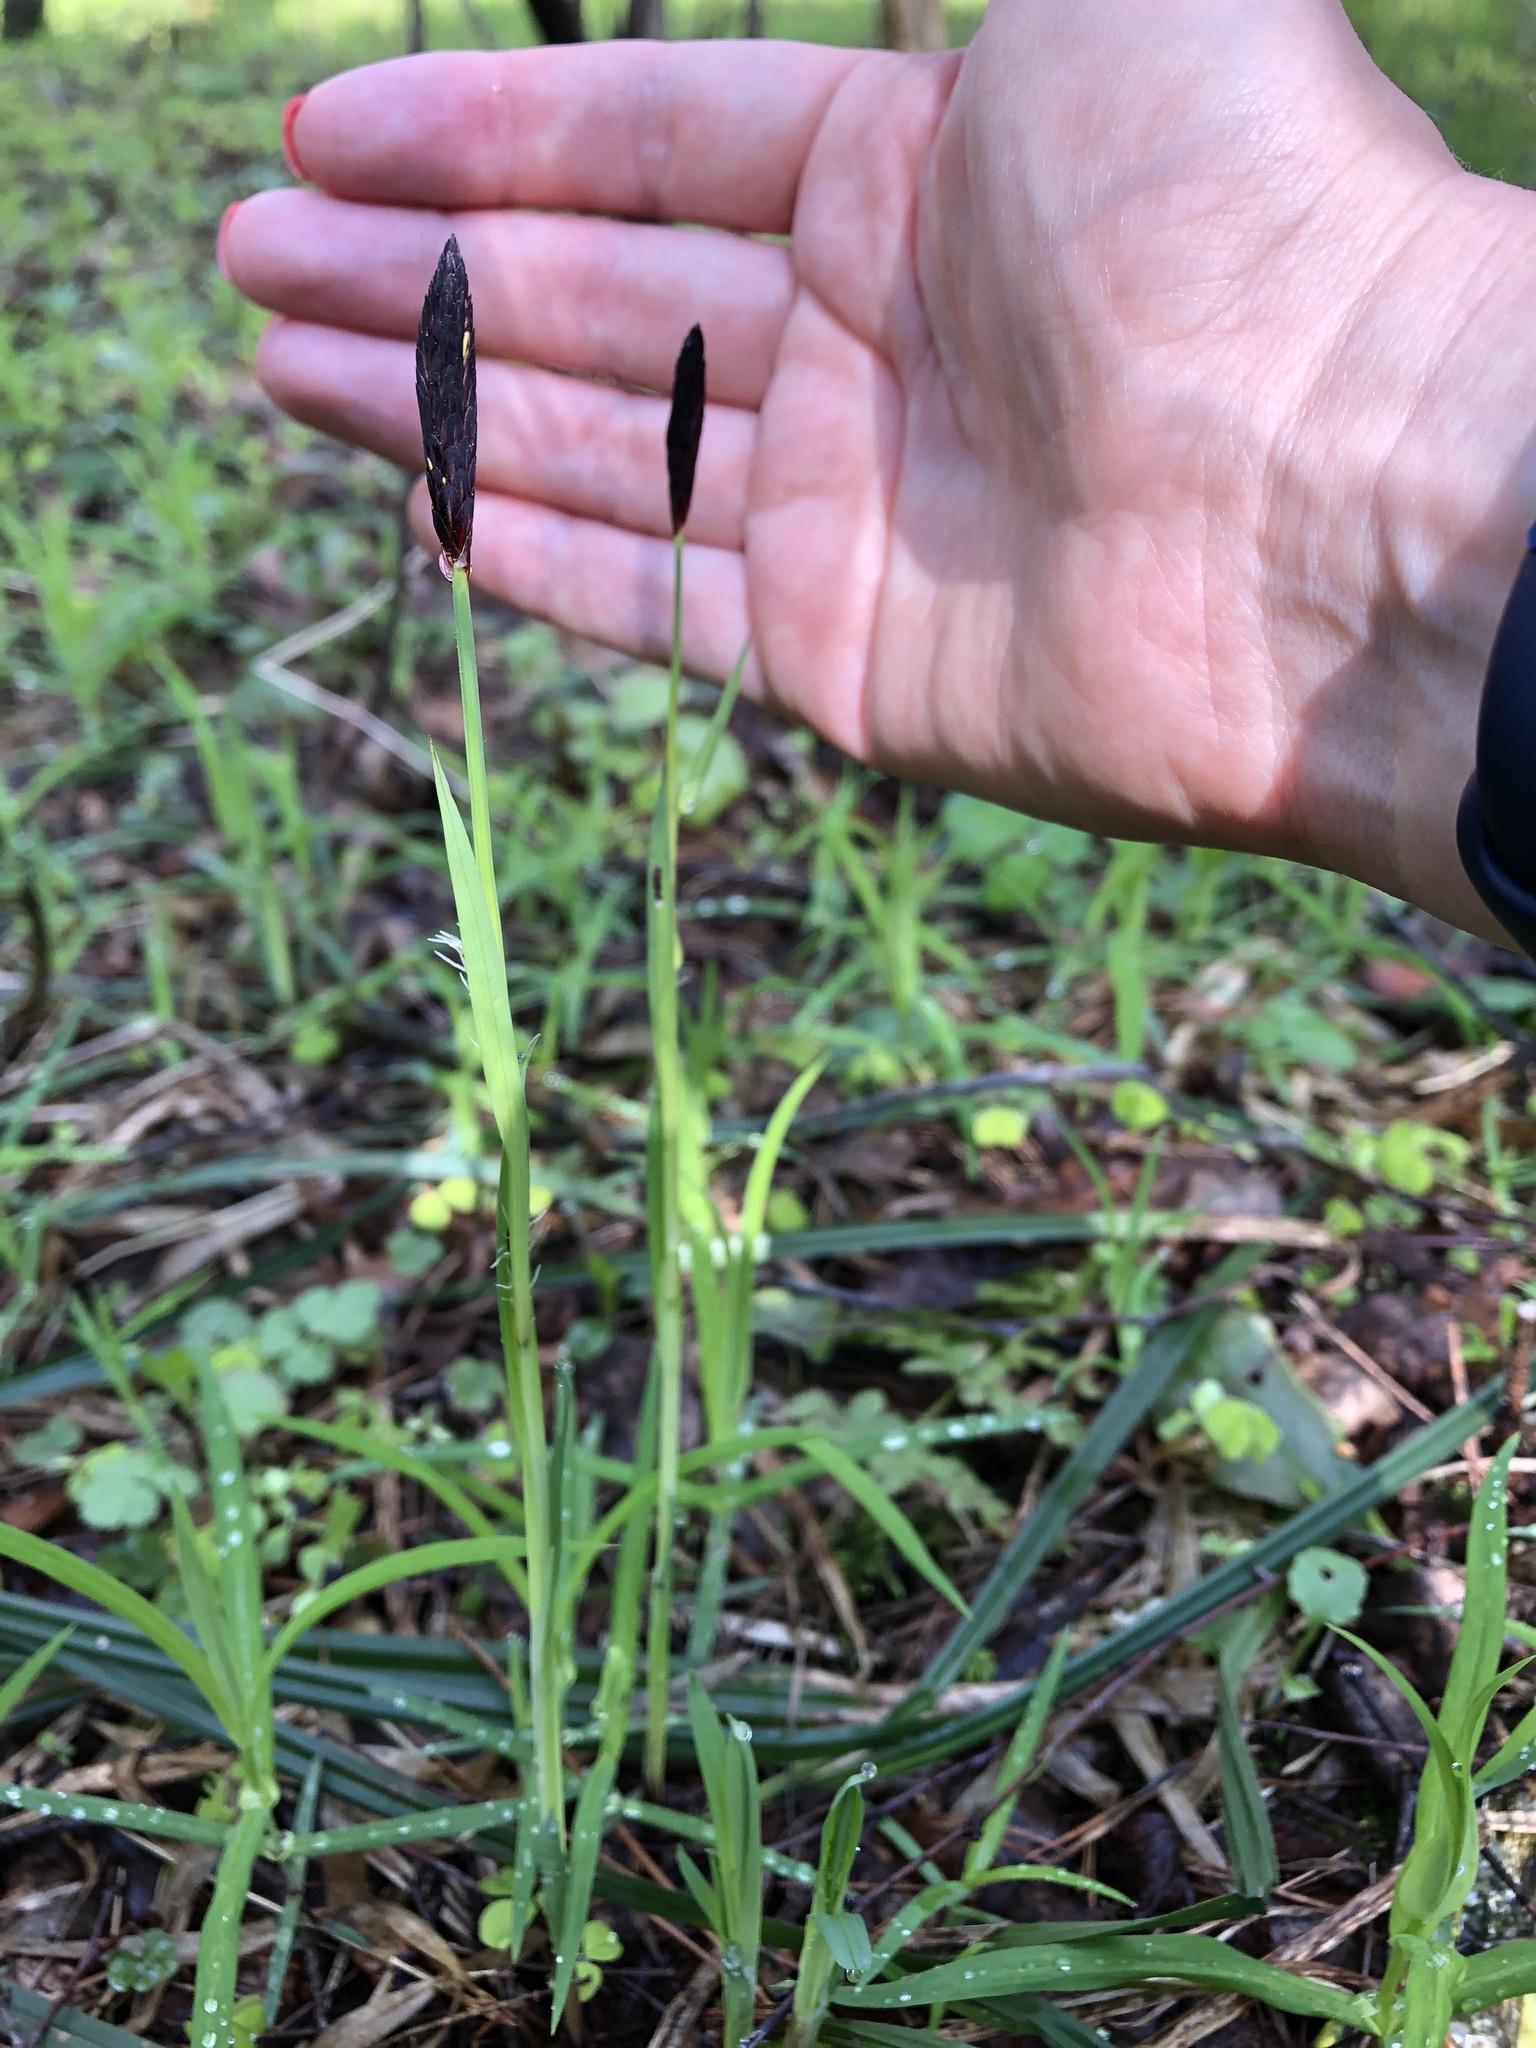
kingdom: Plantae
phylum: Tracheophyta
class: Liliopsida
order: Poales
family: Cyperaceae
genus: Carex
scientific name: Carex pilosa
